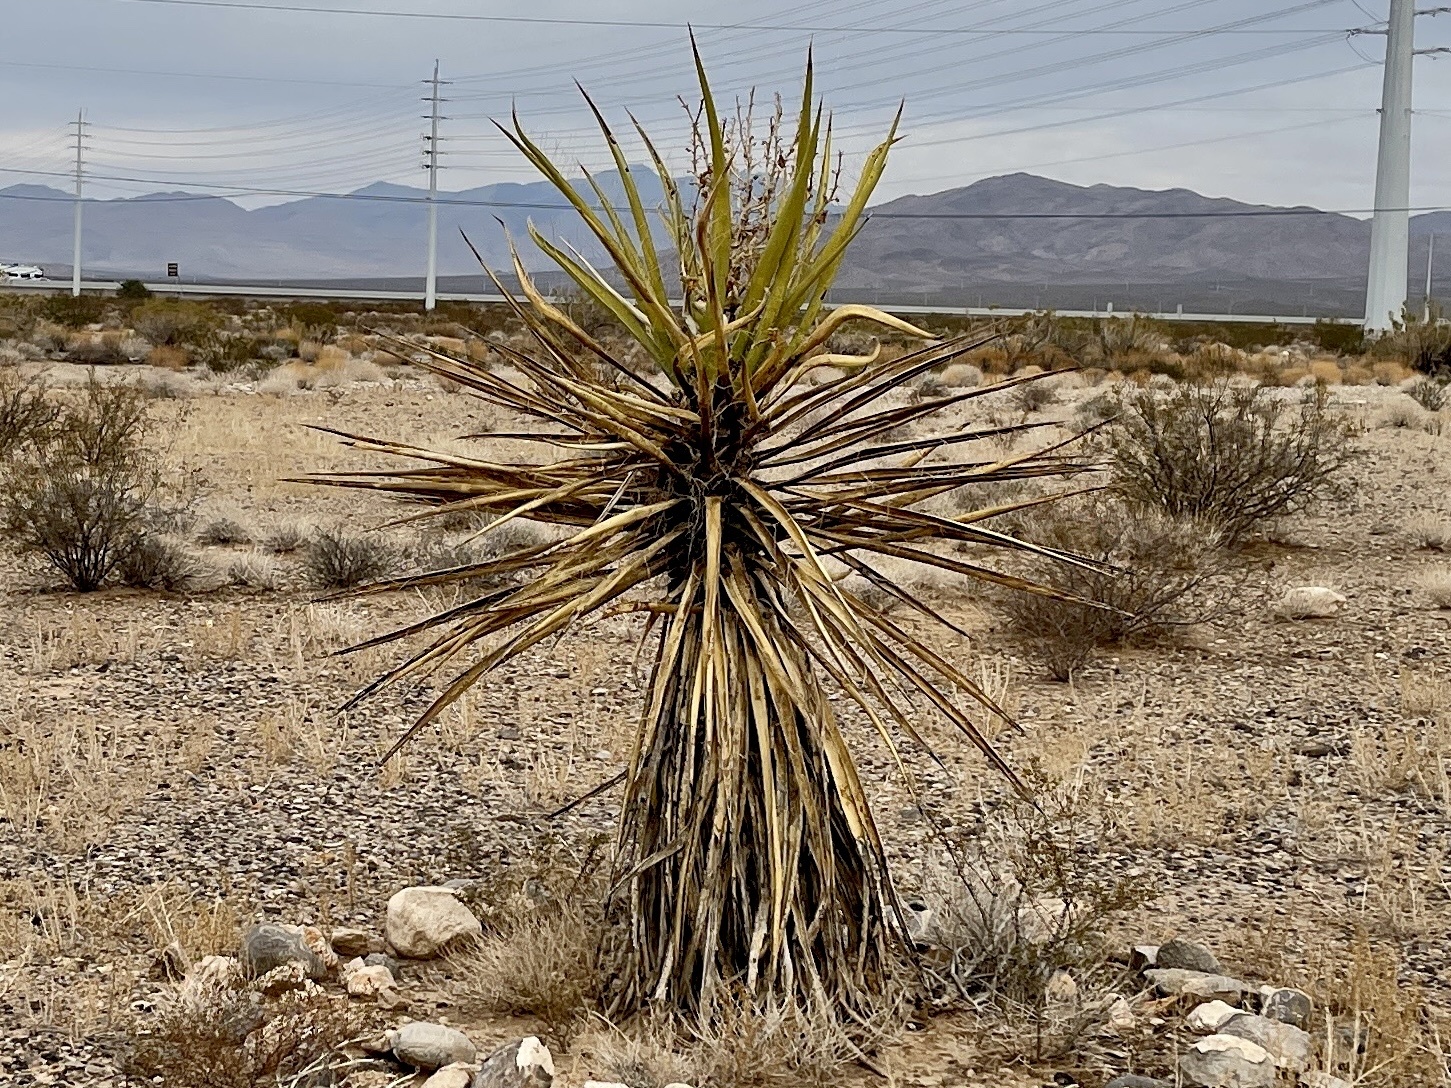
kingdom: Plantae
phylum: Tracheophyta
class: Liliopsida
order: Asparagales
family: Asparagaceae
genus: Yucca
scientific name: Yucca schidigera
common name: Mojave yucca
